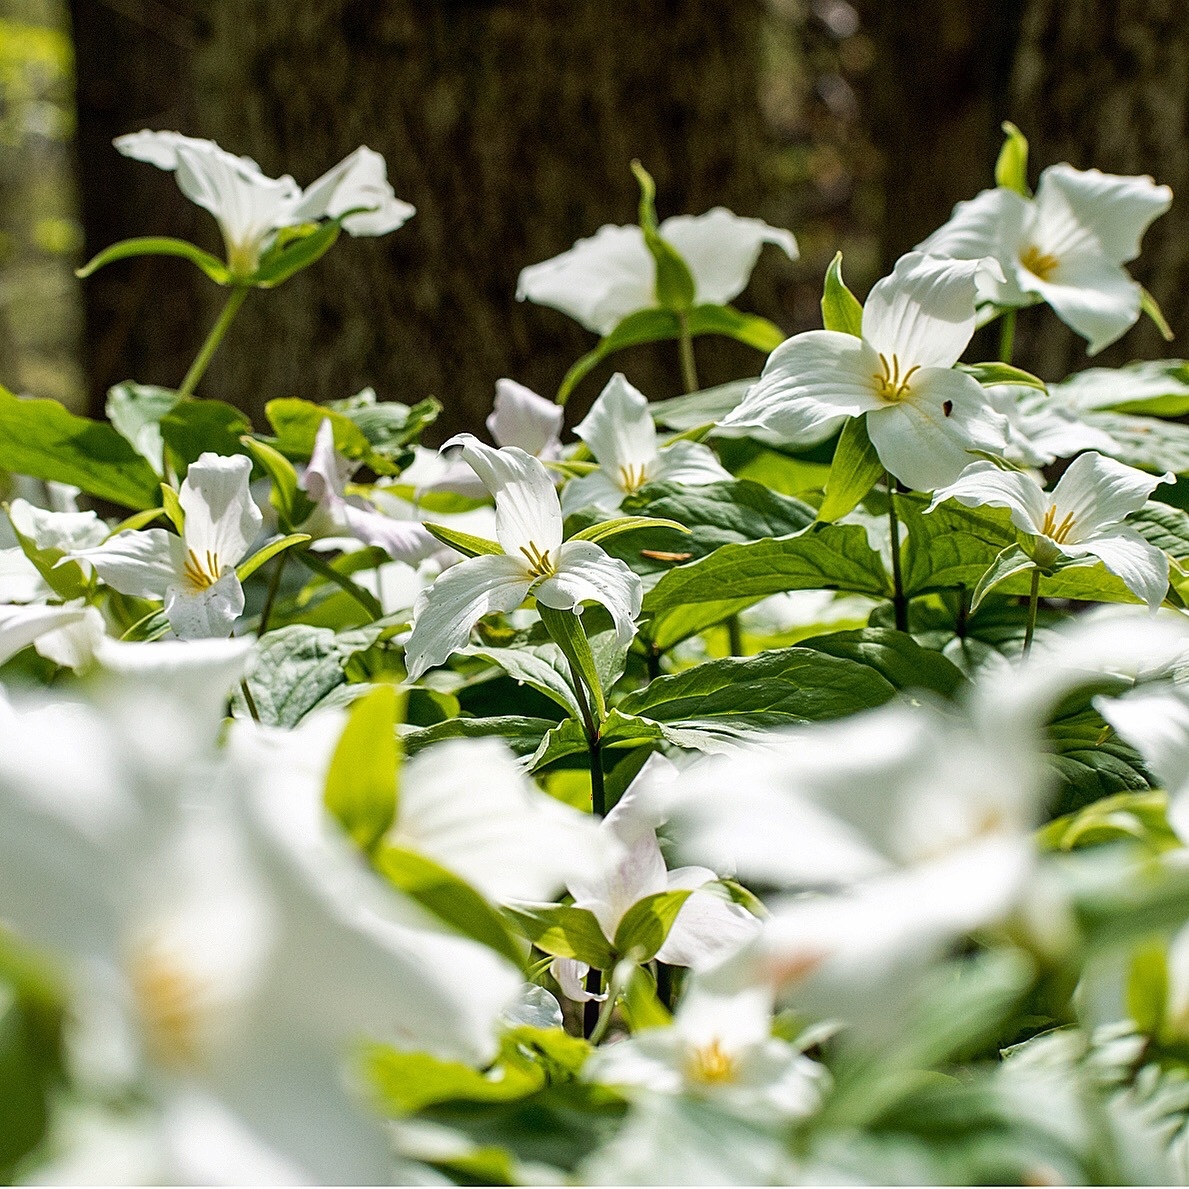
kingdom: Plantae
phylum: Tracheophyta
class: Liliopsida
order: Liliales
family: Melanthiaceae
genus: Trillium
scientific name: Trillium grandiflorum
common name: Great white trillium
